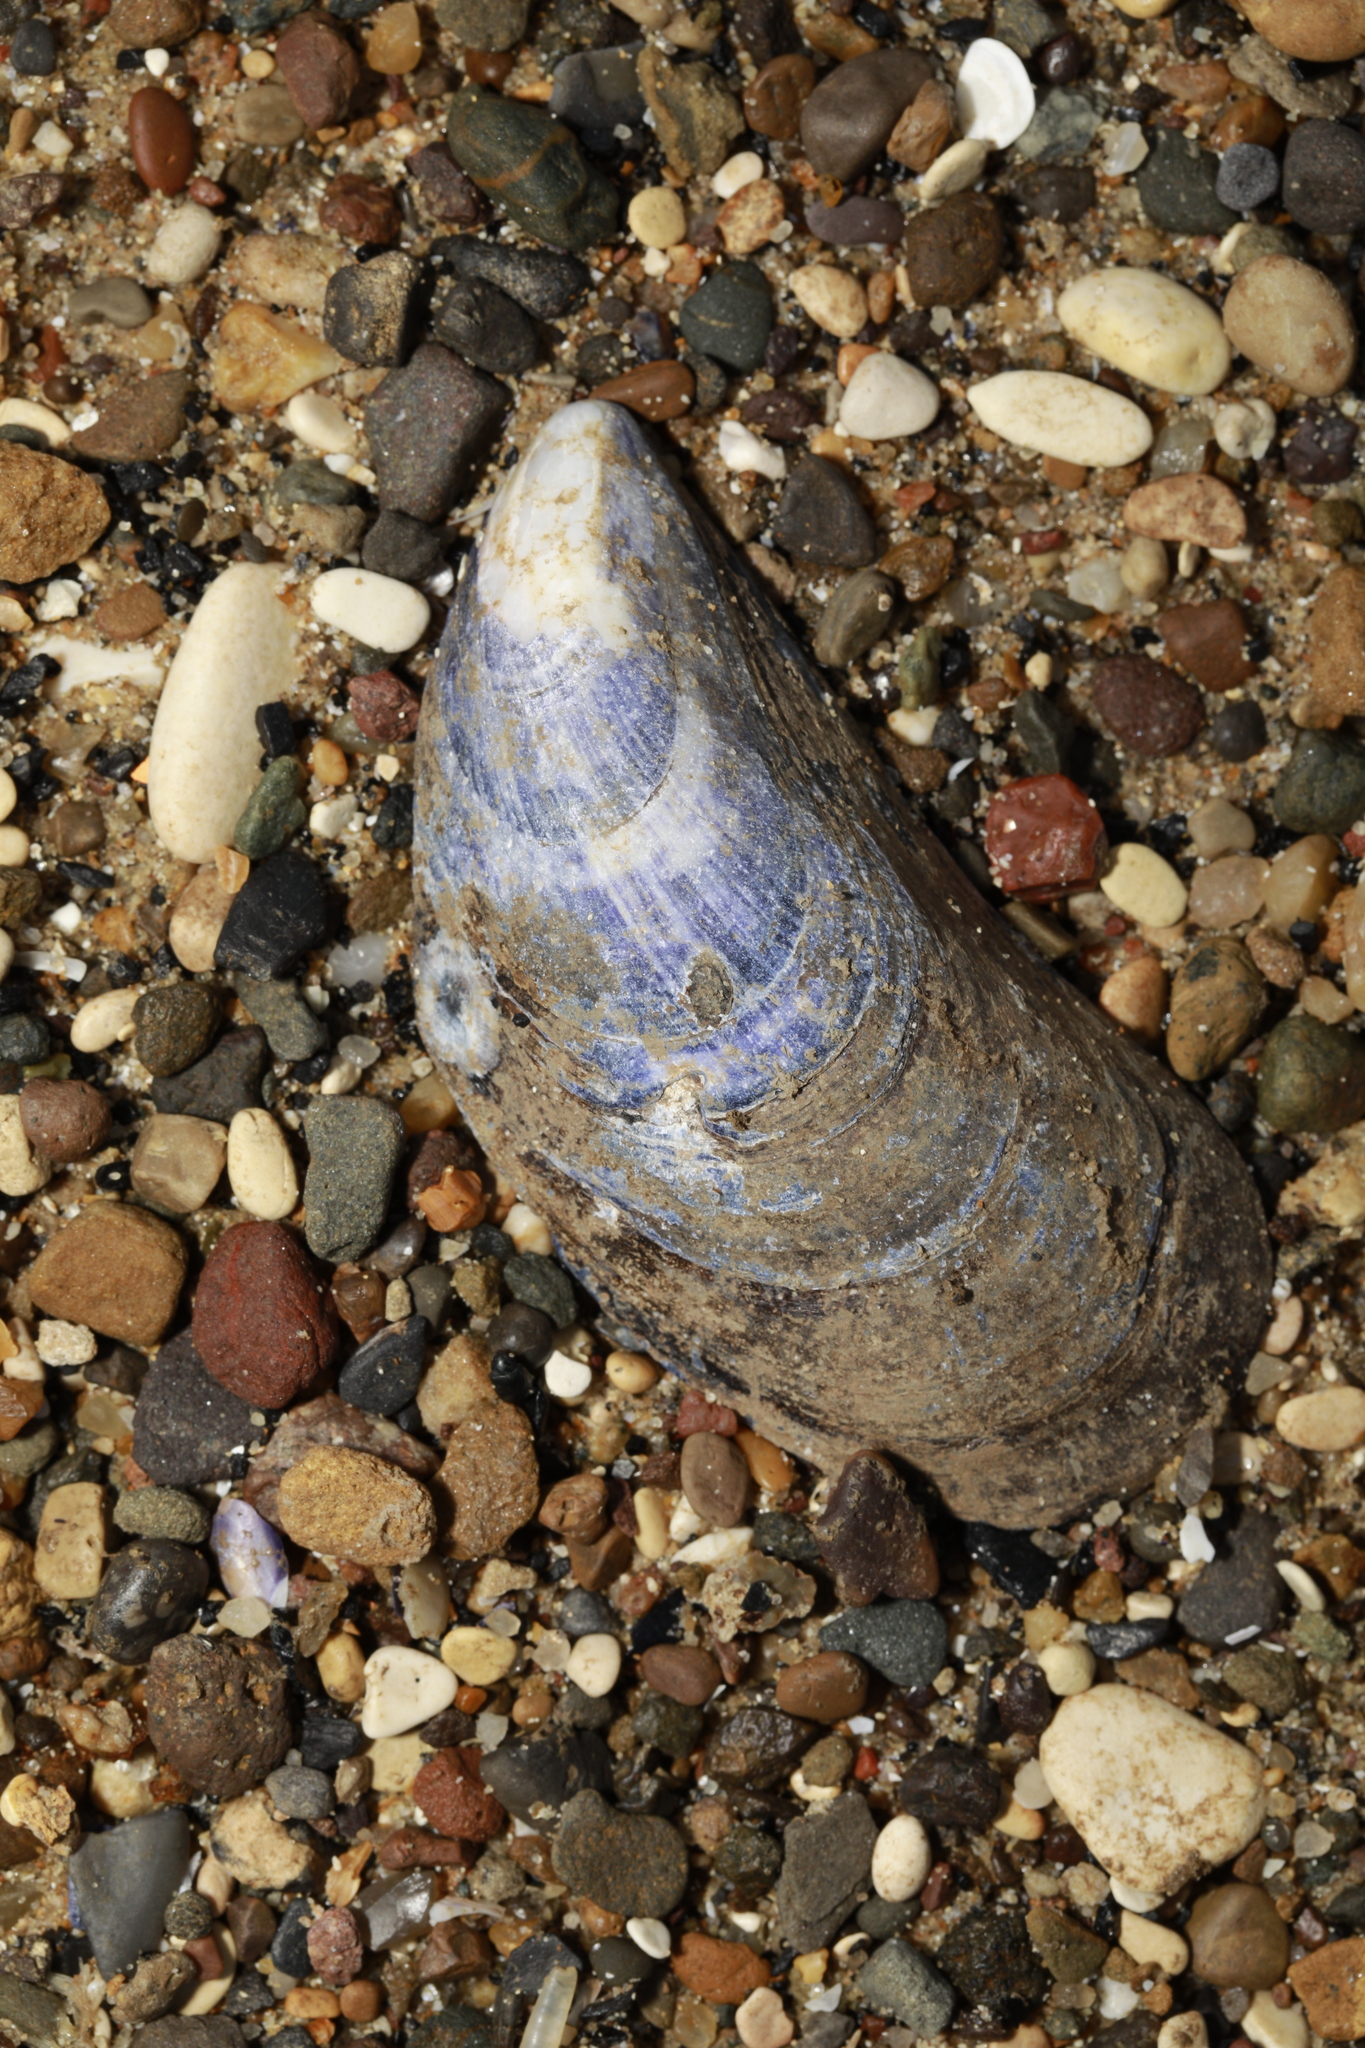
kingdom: Animalia
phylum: Mollusca
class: Bivalvia
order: Mytilida
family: Mytilidae
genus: Mytilus
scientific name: Mytilus edulis
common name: Blue mussel
